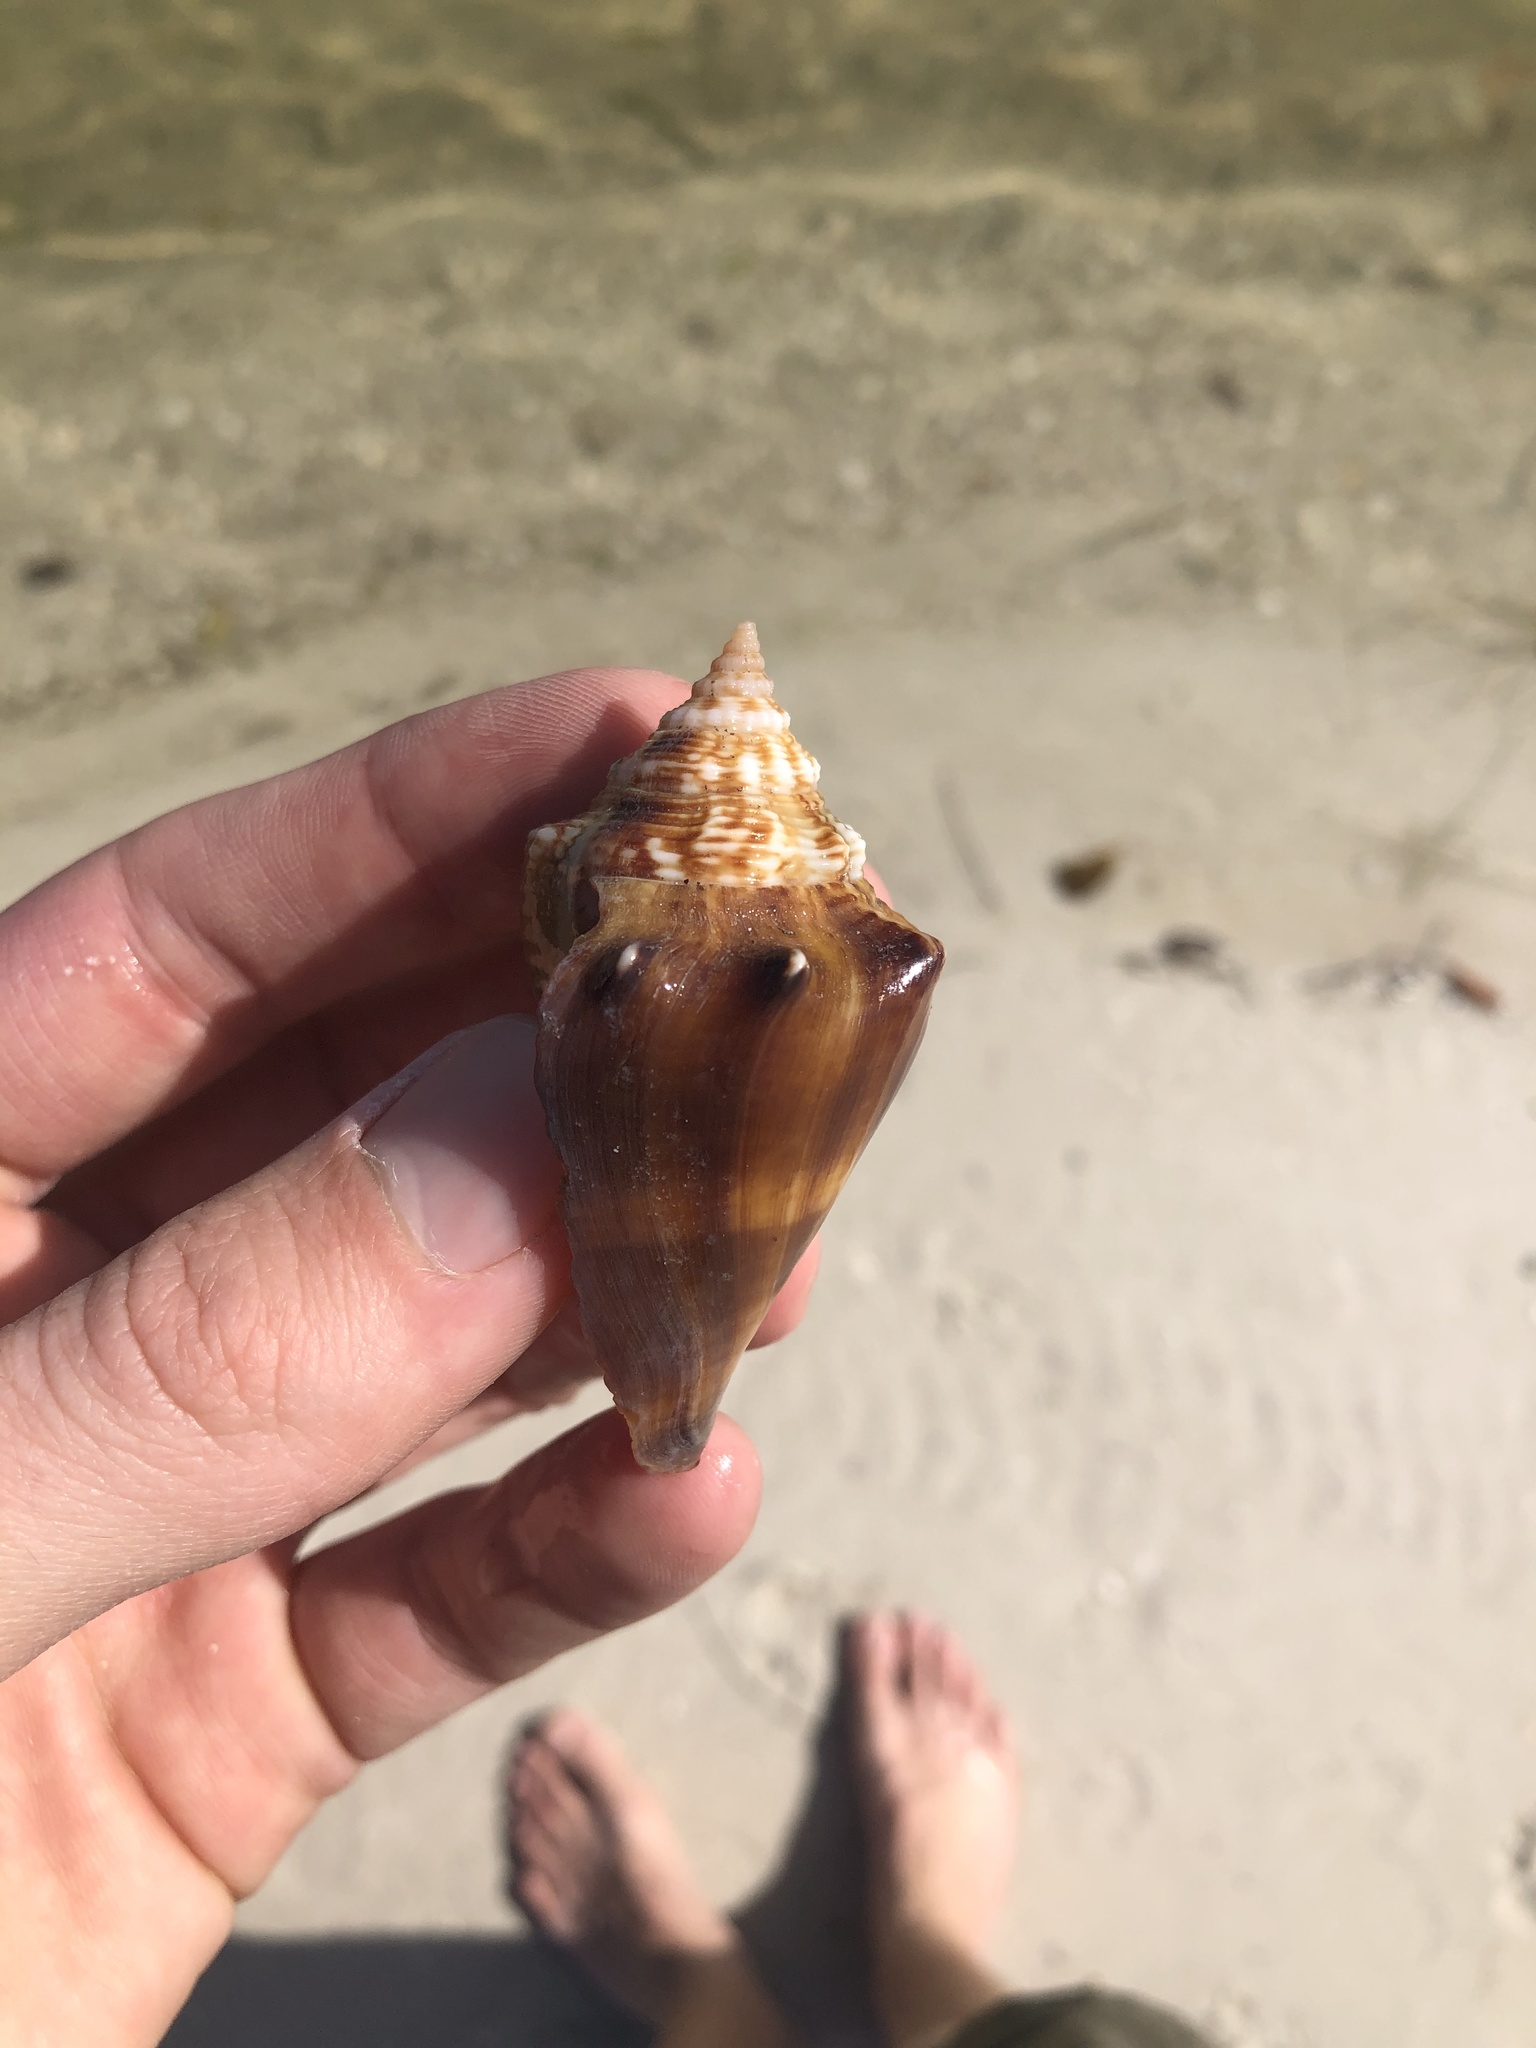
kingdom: Animalia
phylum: Mollusca
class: Gastropoda
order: Littorinimorpha
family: Strombidae
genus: Strombus
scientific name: Strombus alatus
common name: Florida fighting conch
